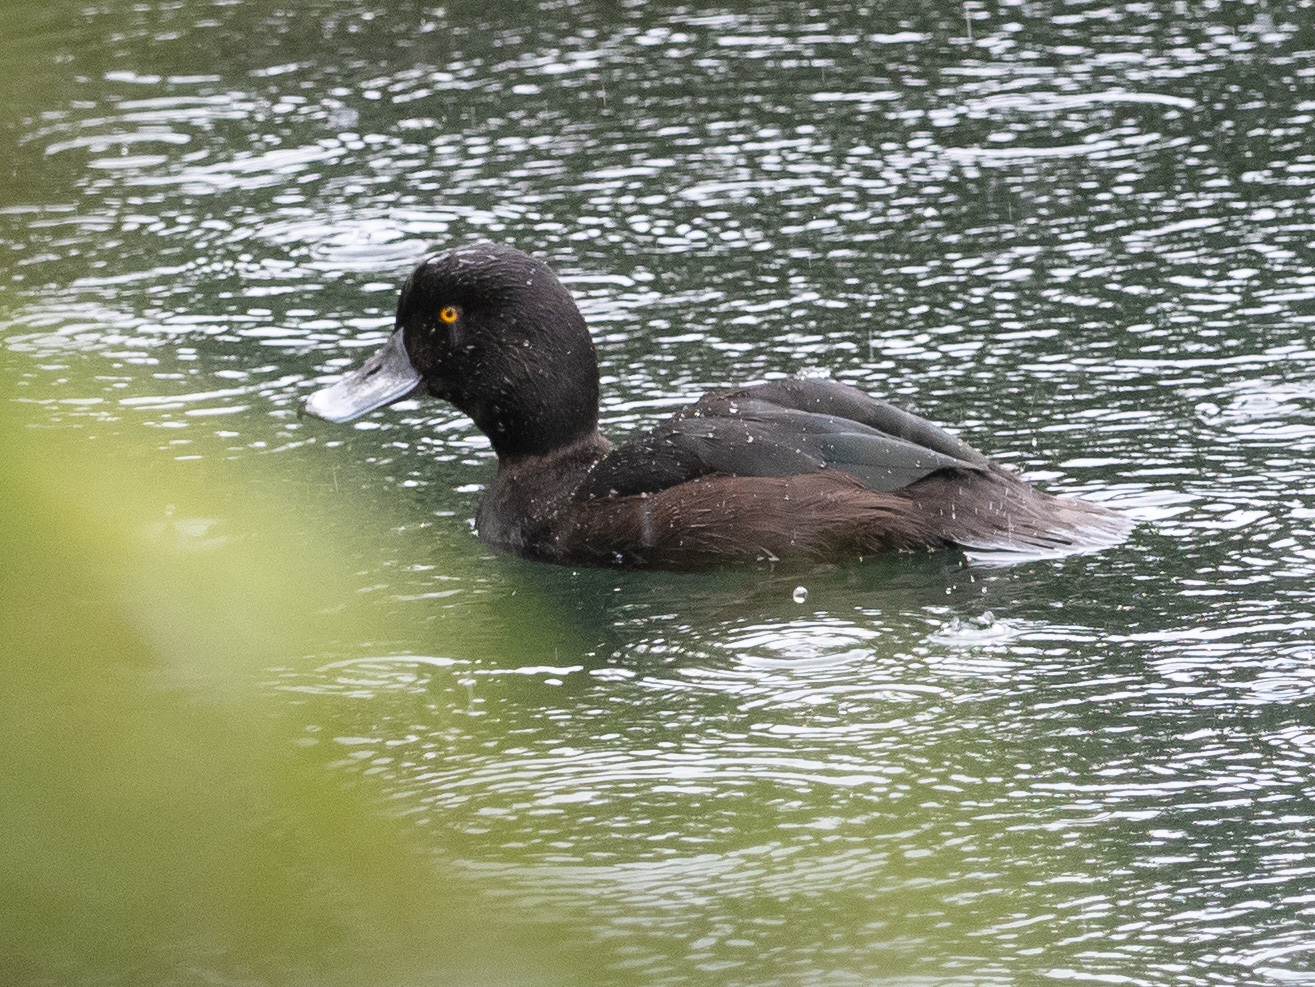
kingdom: Animalia
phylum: Chordata
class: Aves
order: Anseriformes
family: Anatidae
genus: Aythya
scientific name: Aythya novaeseelandiae
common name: New zealand scaup
